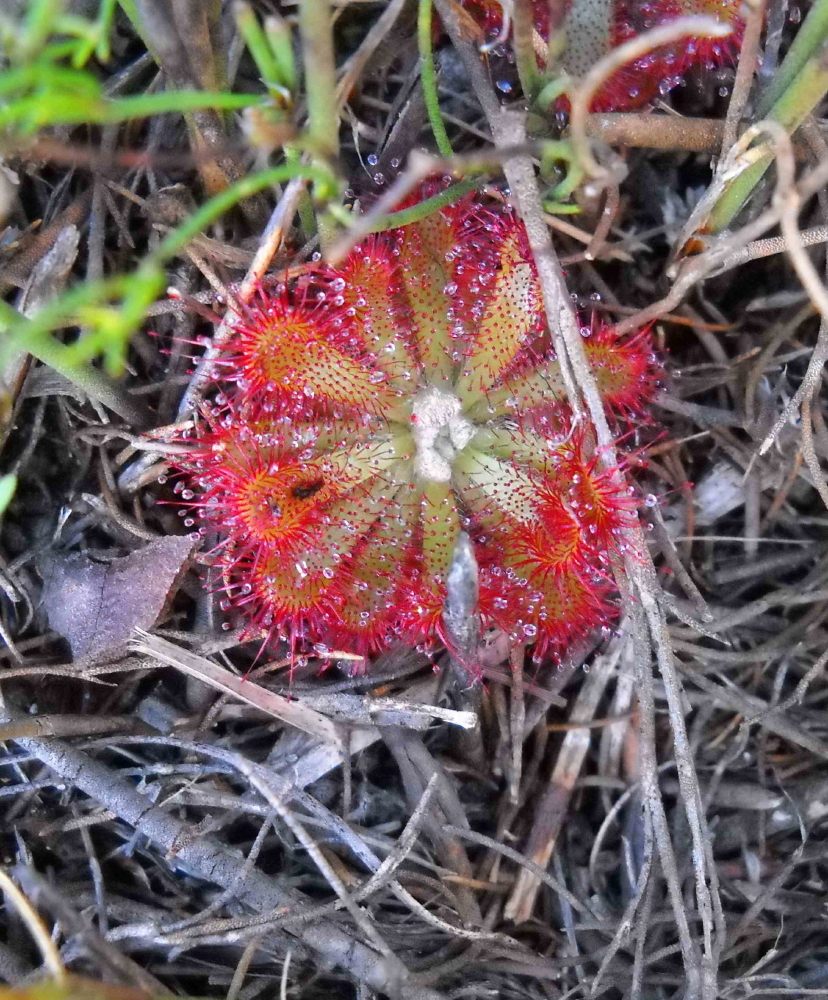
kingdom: Plantae
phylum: Tracheophyta
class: Magnoliopsida
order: Caryophyllales
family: Droseraceae
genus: Drosera
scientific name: Drosera aliciae
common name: Alice sundew
